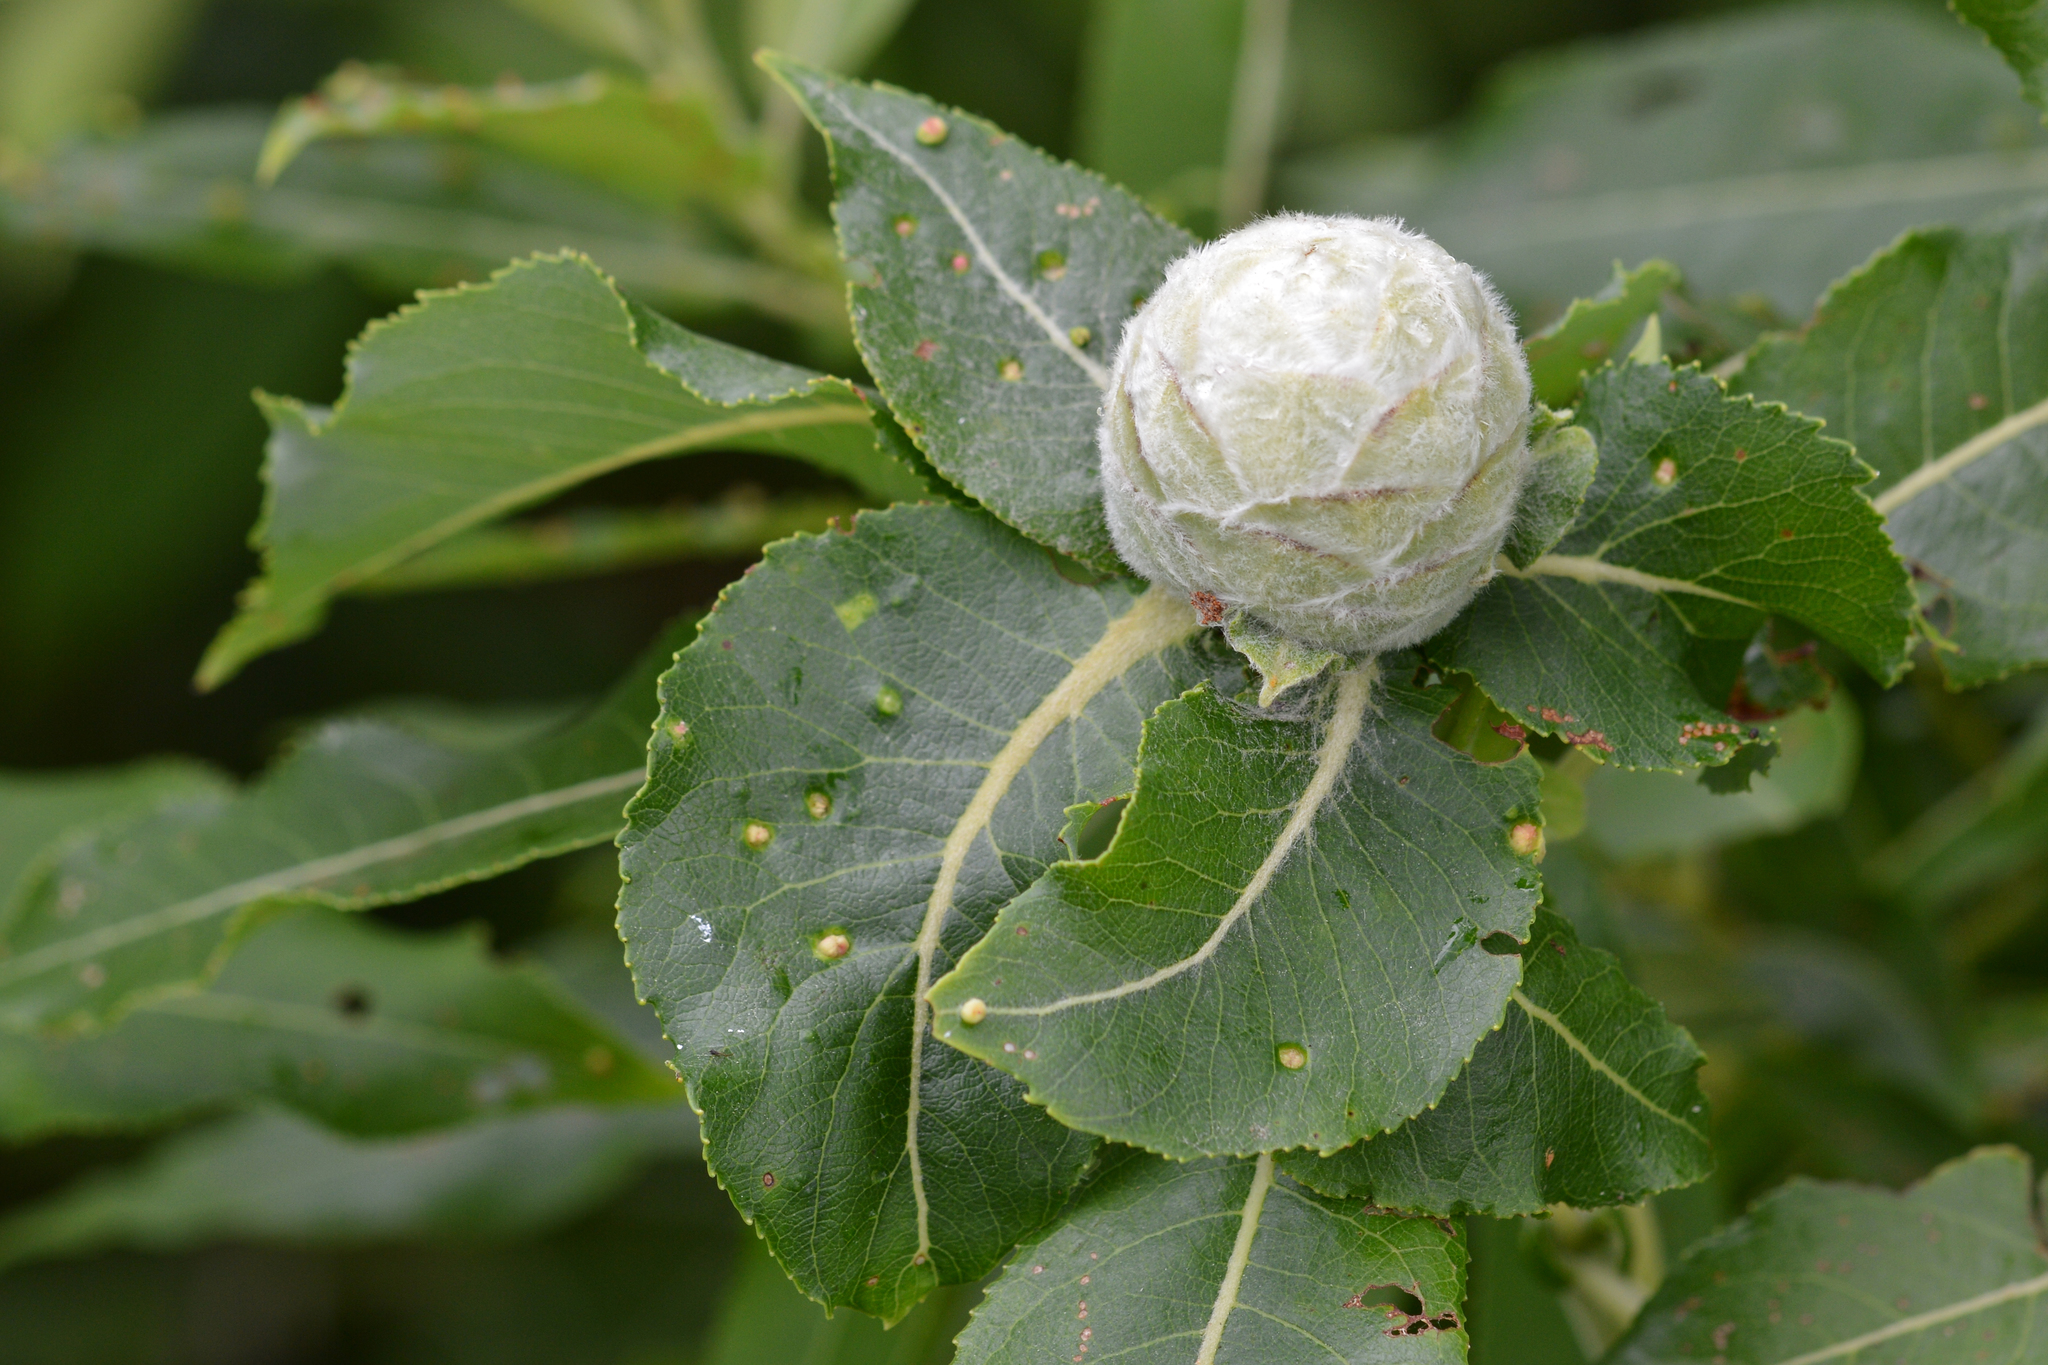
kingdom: Animalia
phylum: Arthropoda
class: Insecta
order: Diptera
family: Cecidomyiidae
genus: Rabdophaga
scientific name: Rabdophaga strobiloides
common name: Willow pinecone gall midge
